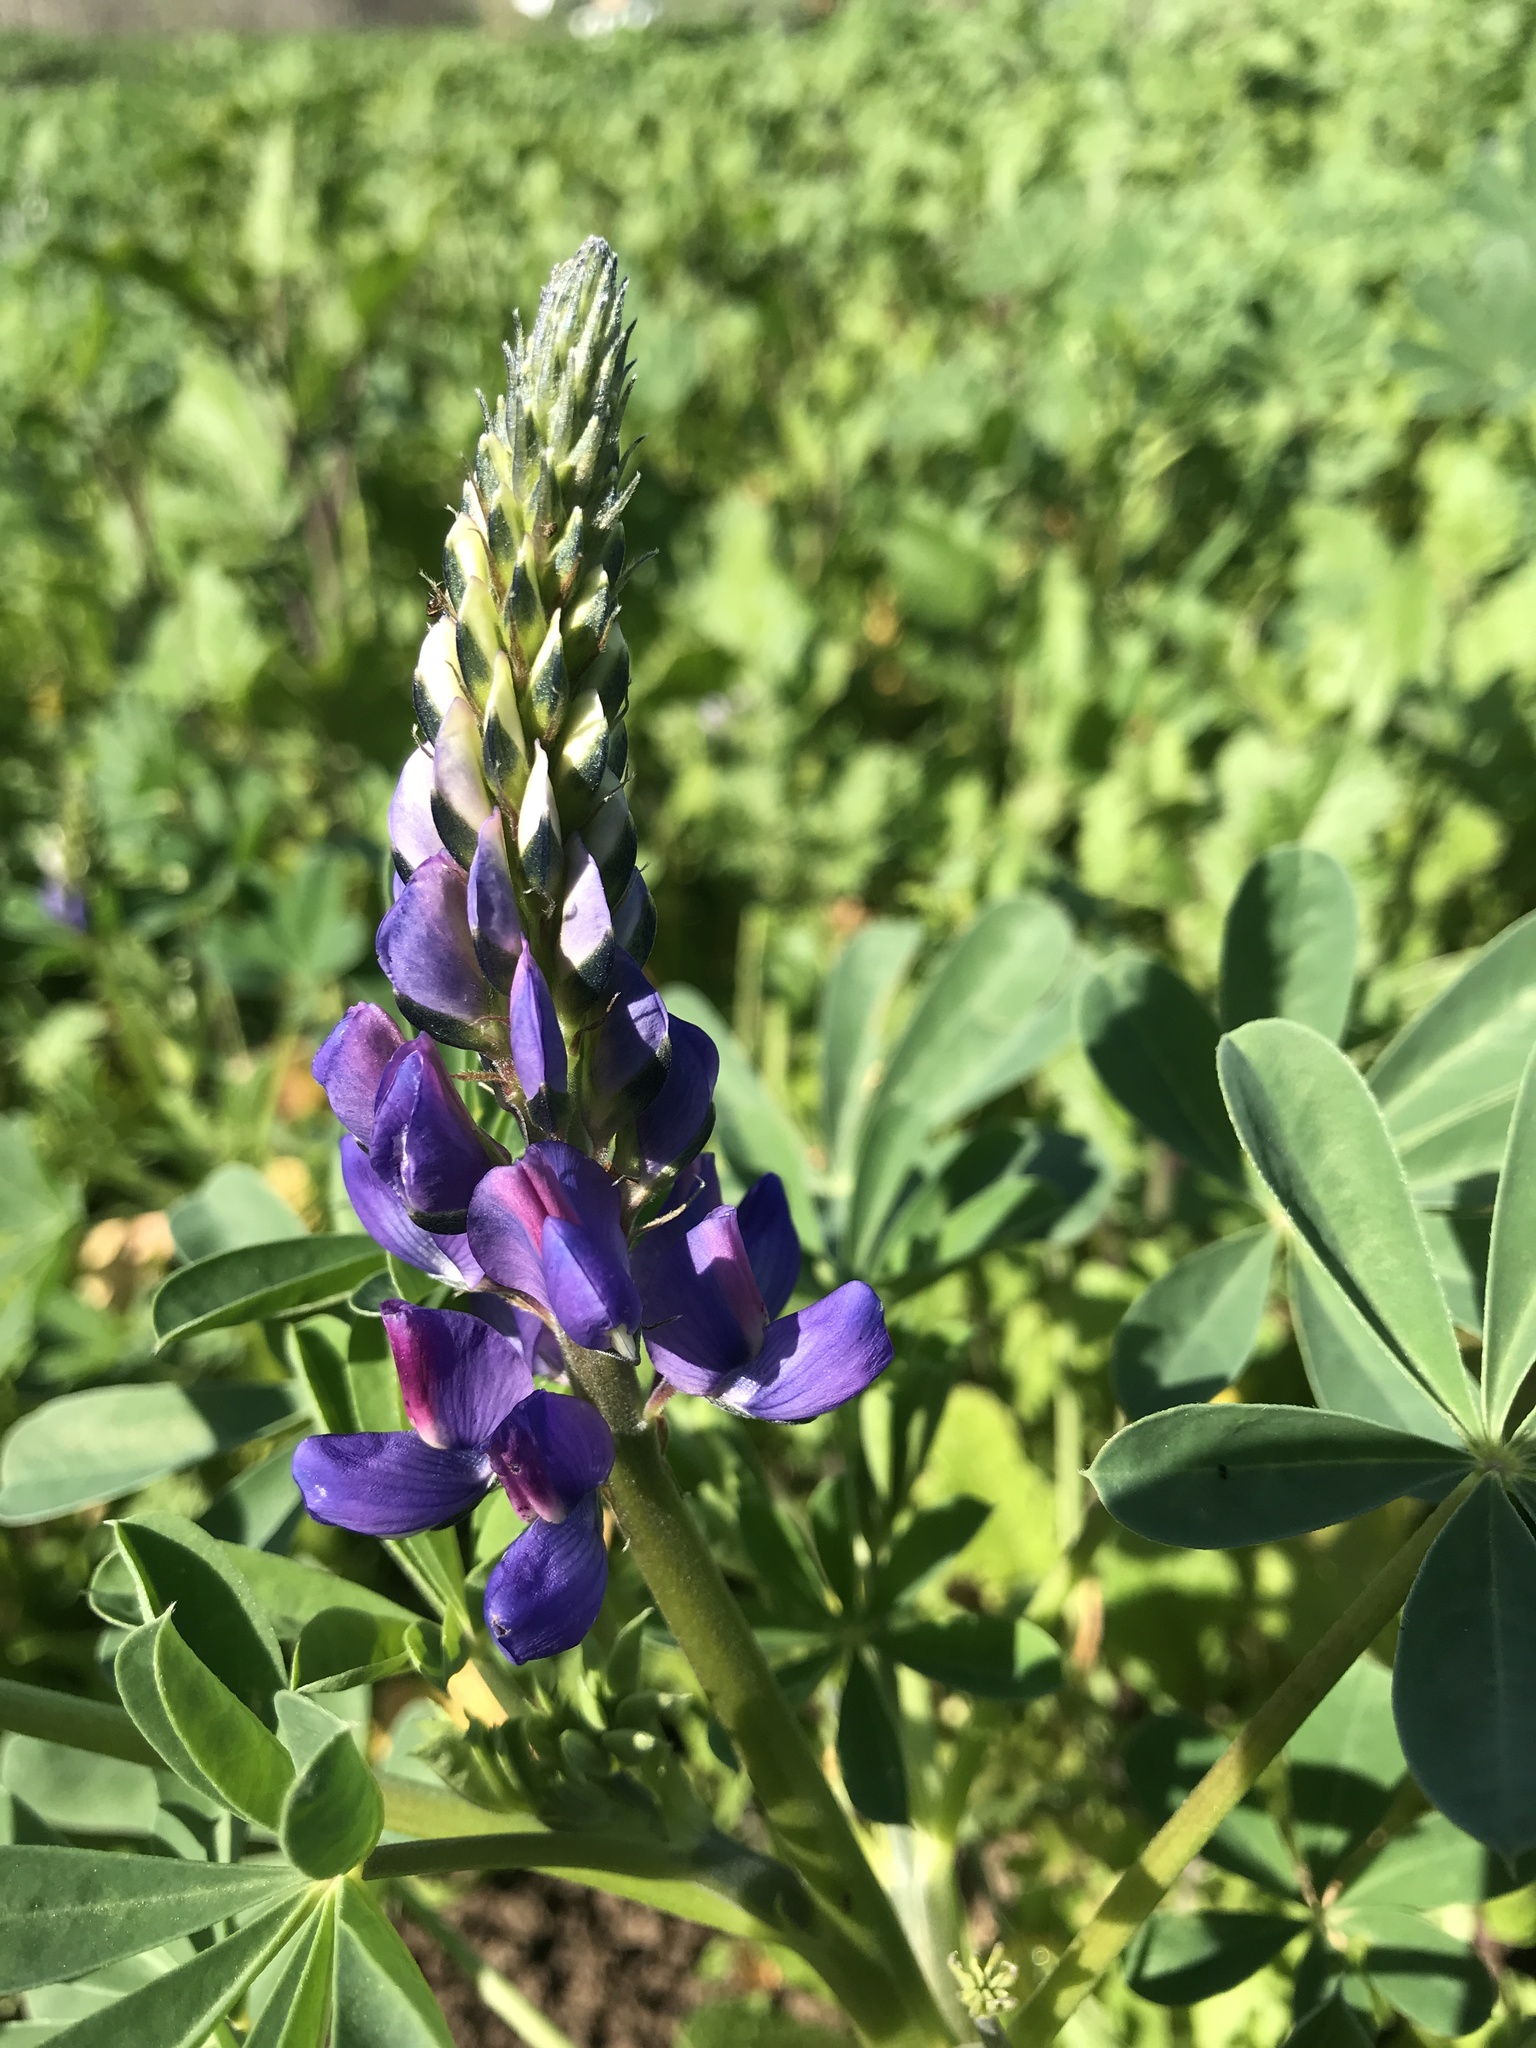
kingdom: Plantae
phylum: Tracheophyta
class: Magnoliopsida
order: Fabales
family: Fabaceae
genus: Lupinus
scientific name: Lupinus succulentus
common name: Arroyo lupine
